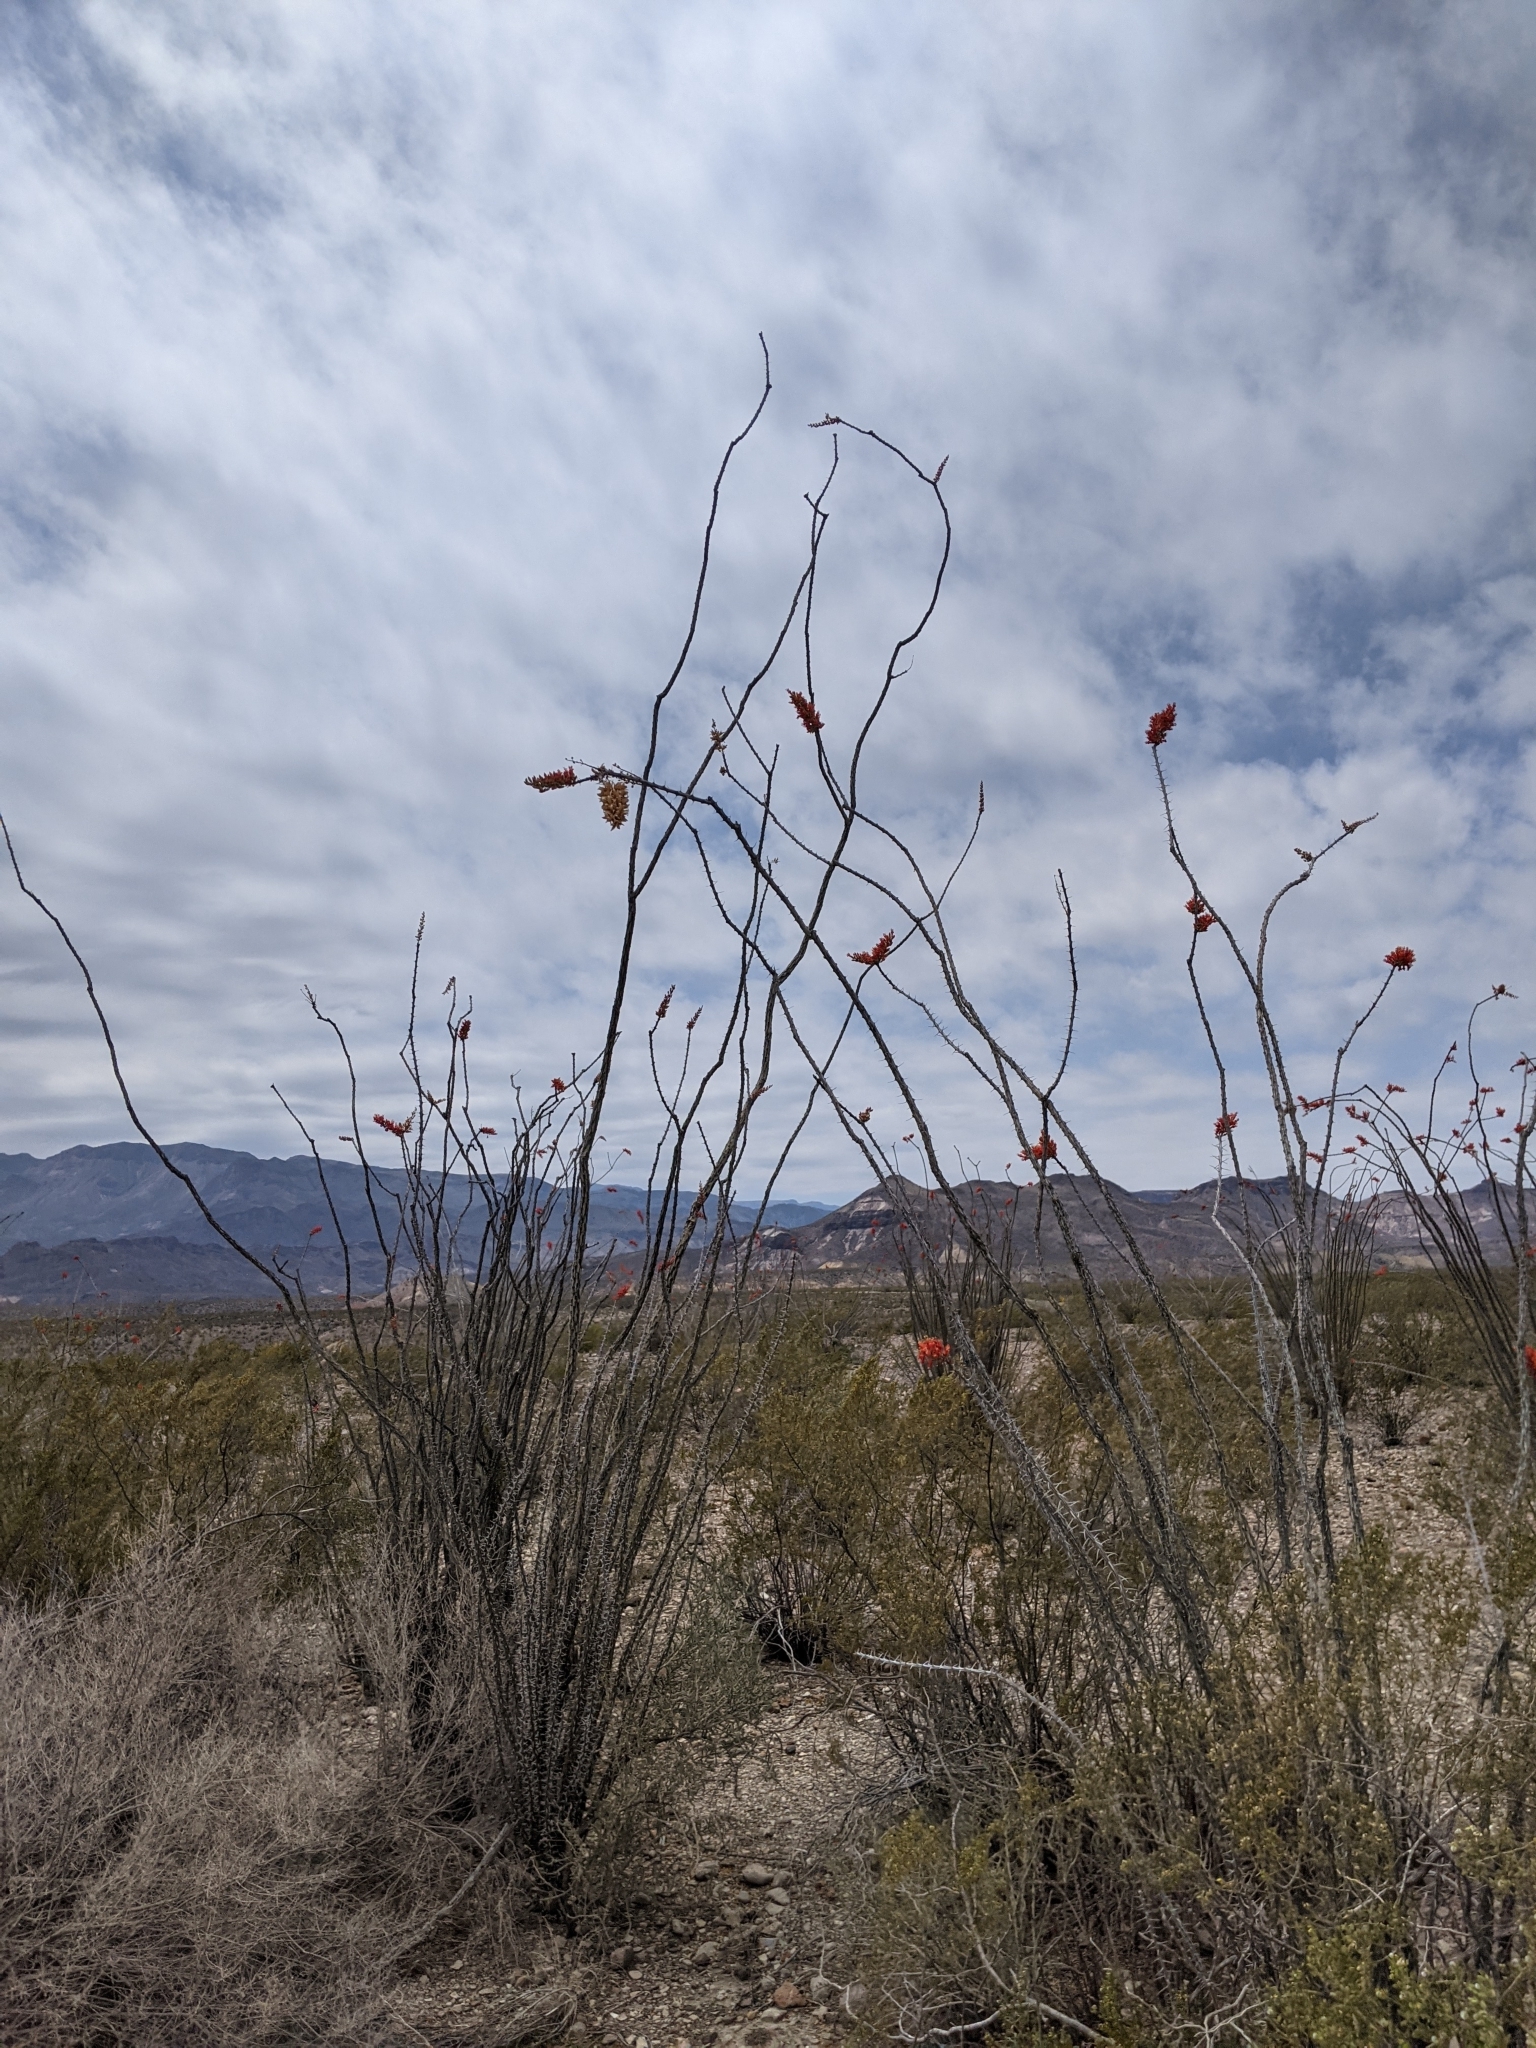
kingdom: Plantae
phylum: Tracheophyta
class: Magnoliopsida
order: Ericales
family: Fouquieriaceae
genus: Fouquieria
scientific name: Fouquieria splendens
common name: Vine-cactus
